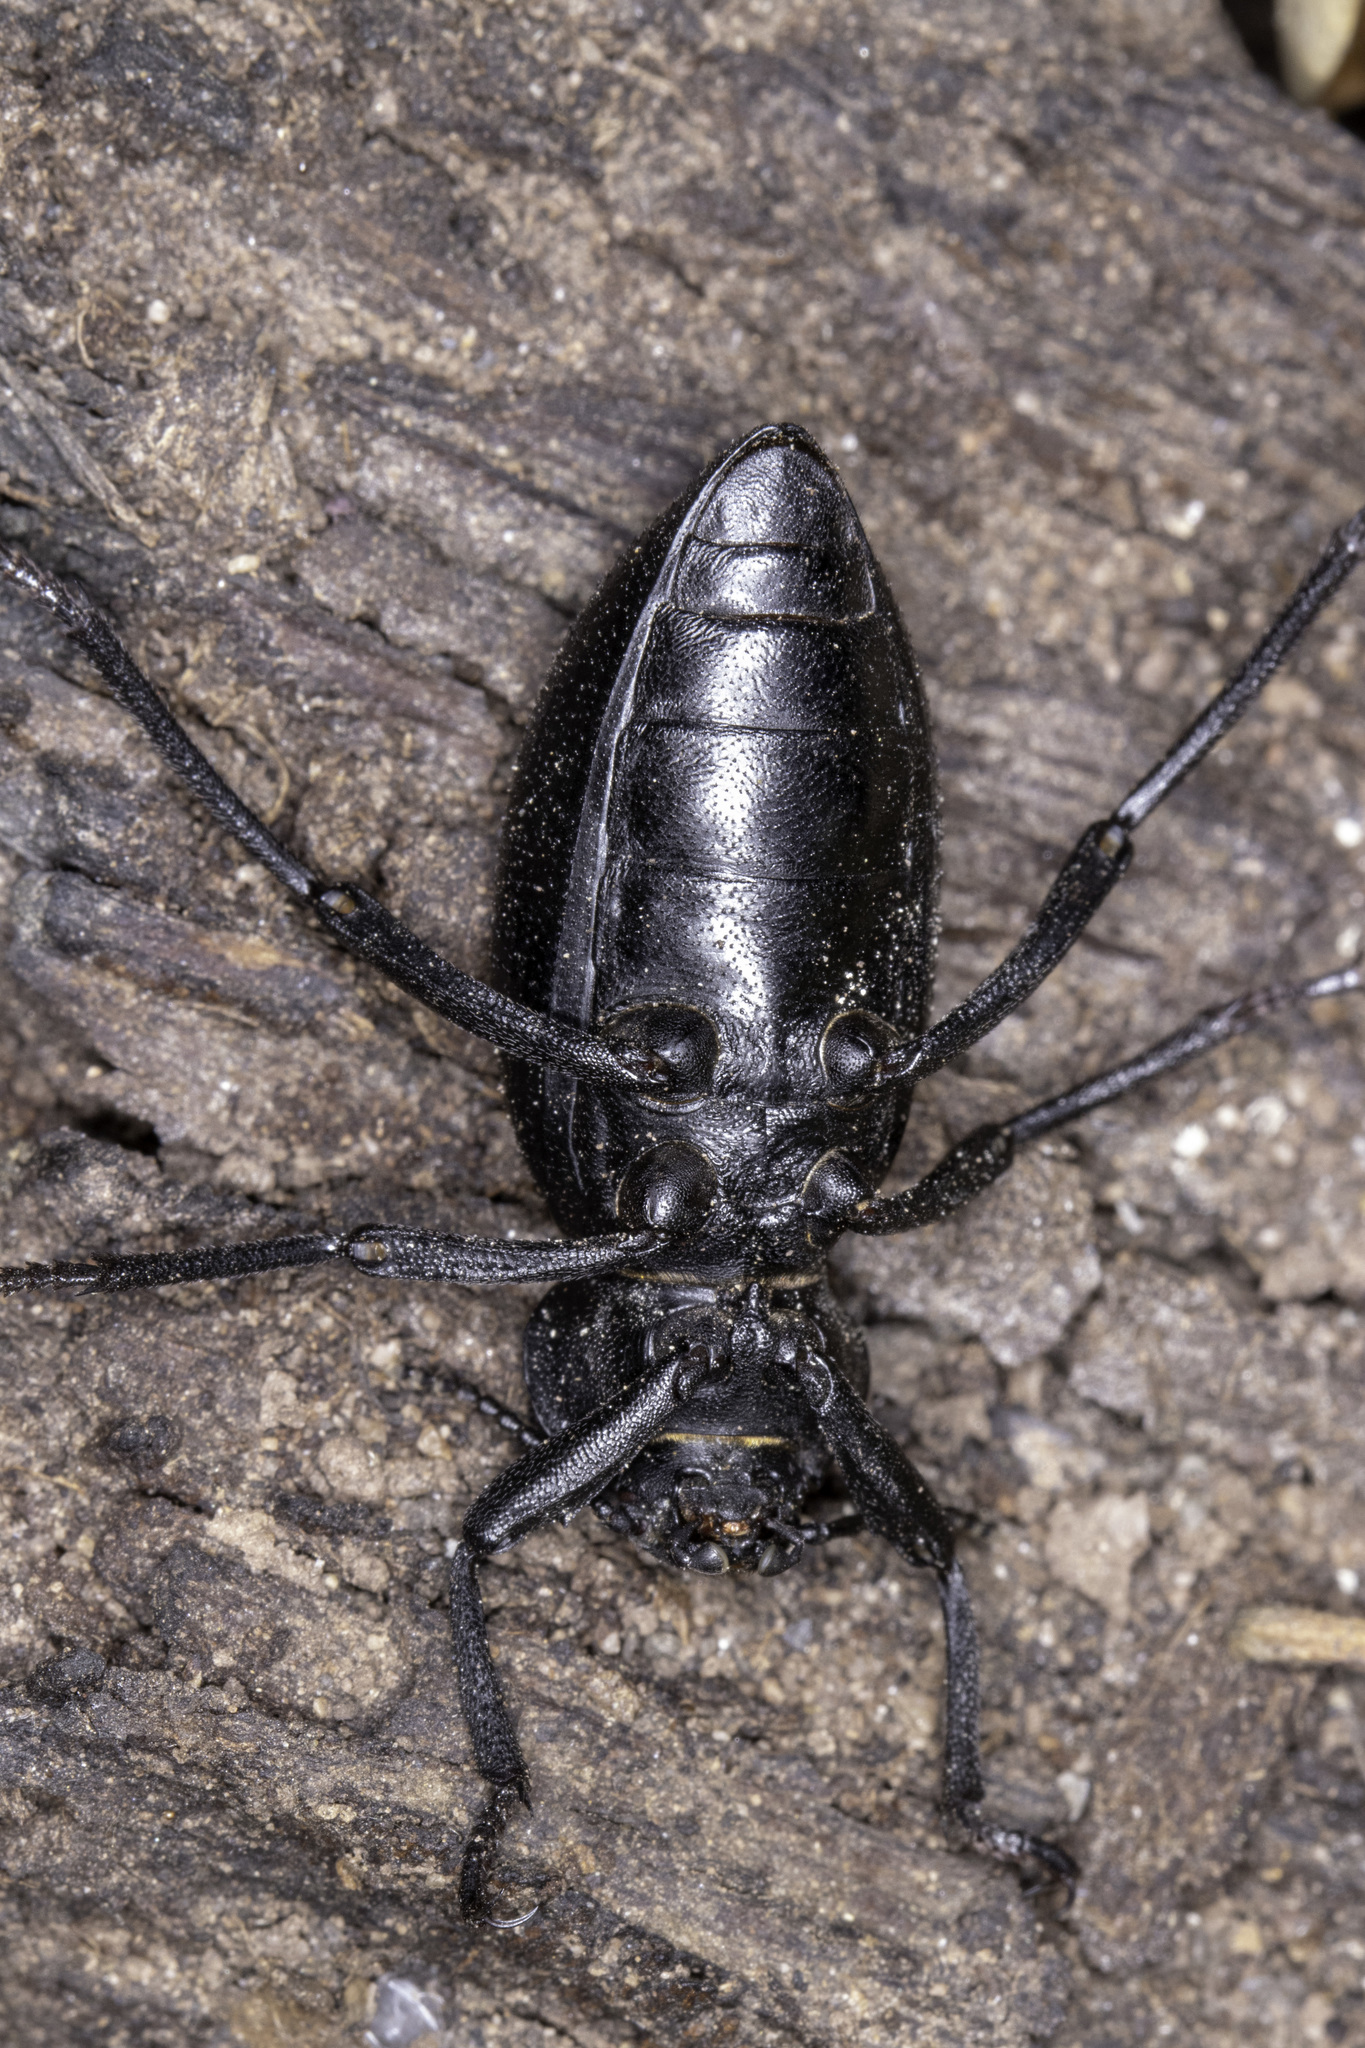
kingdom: Animalia
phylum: Arthropoda
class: Insecta
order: Coleoptera
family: Tenebrionidae
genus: Eleodes
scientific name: Eleodes dentipes
